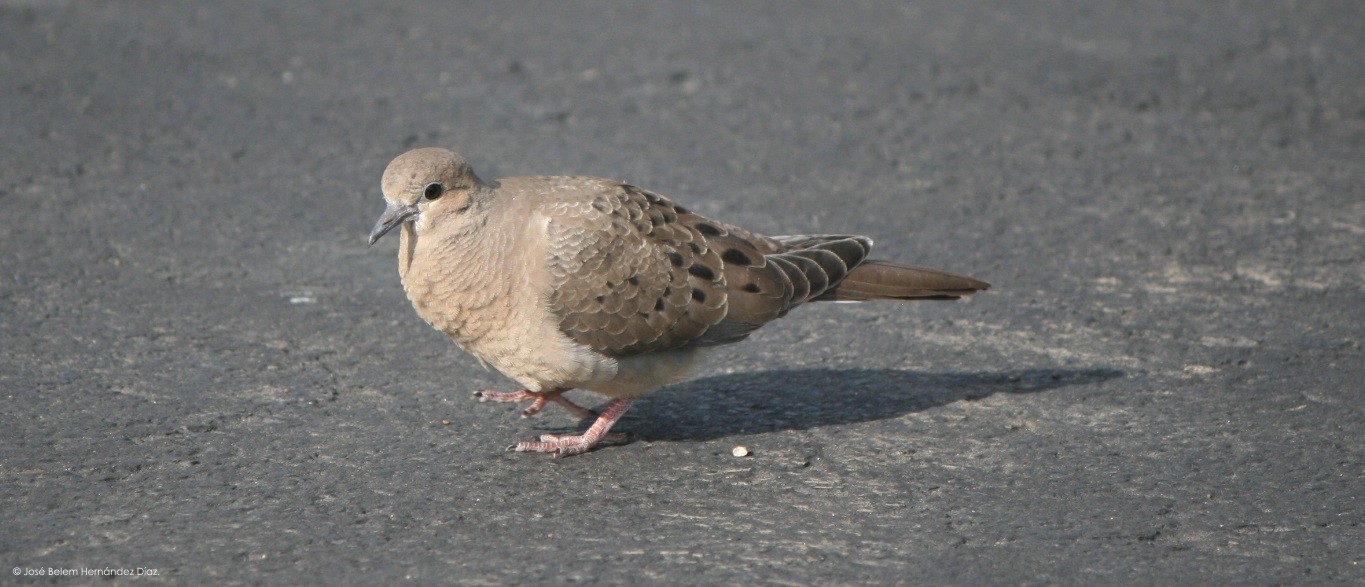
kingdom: Animalia
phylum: Chordata
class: Aves
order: Columbiformes
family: Columbidae
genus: Zenaida
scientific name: Zenaida macroura
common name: Mourning dove
